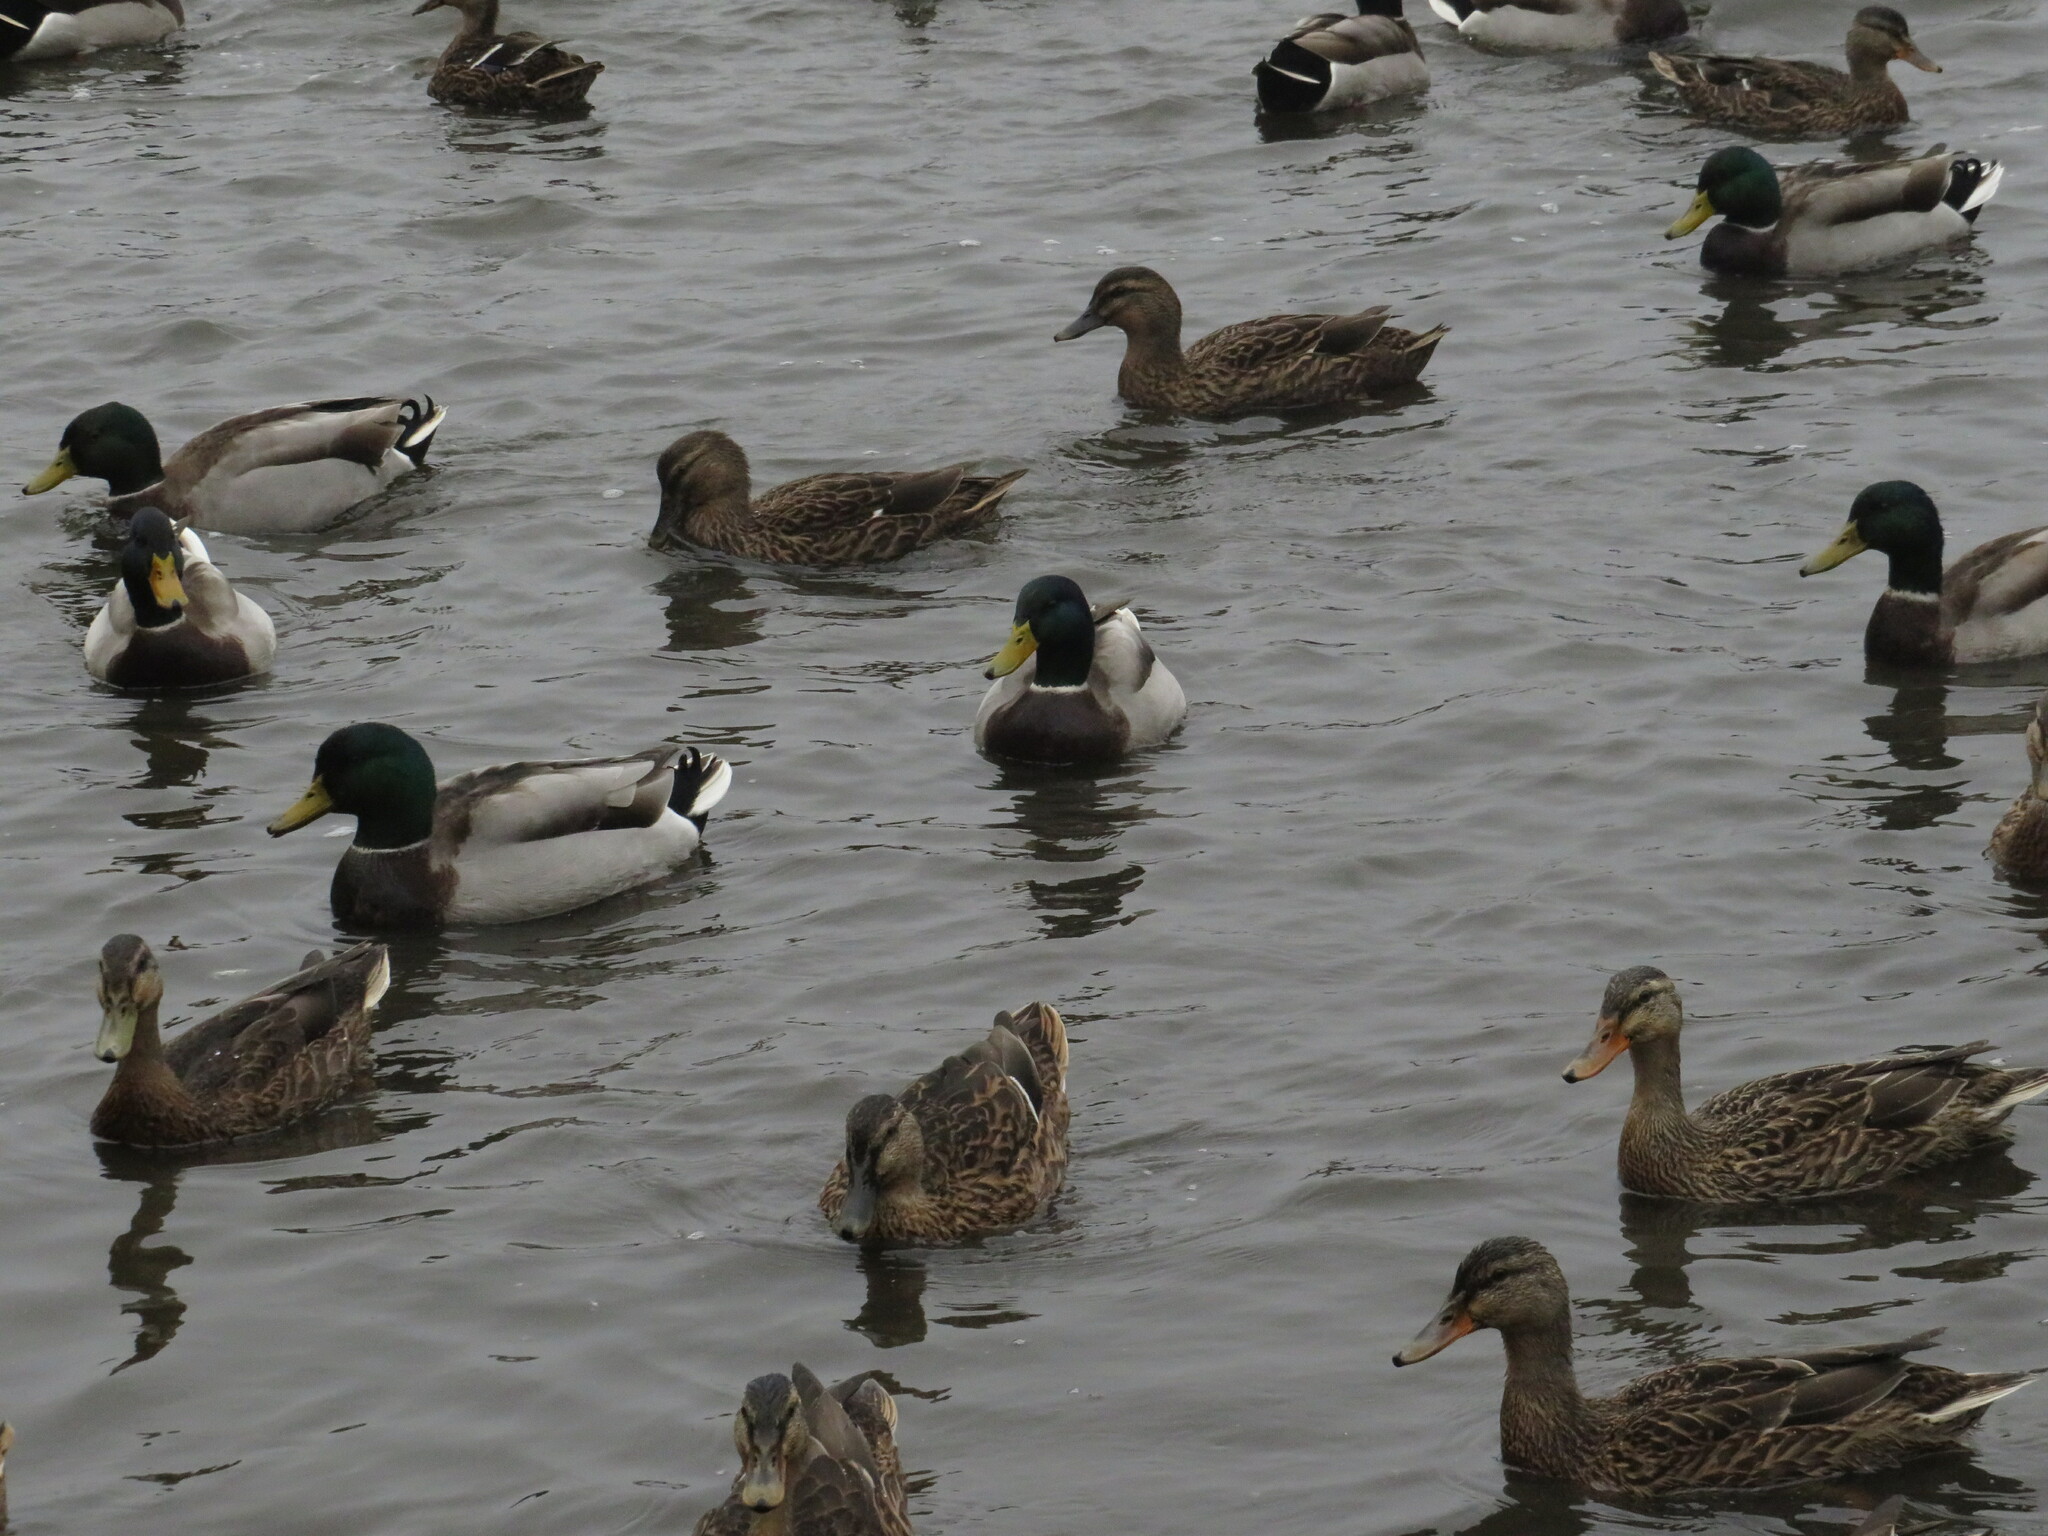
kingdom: Animalia
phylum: Chordata
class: Aves
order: Anseriformes
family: Anatidae
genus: Anas
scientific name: Anas platyrhynchos
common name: Mallard
